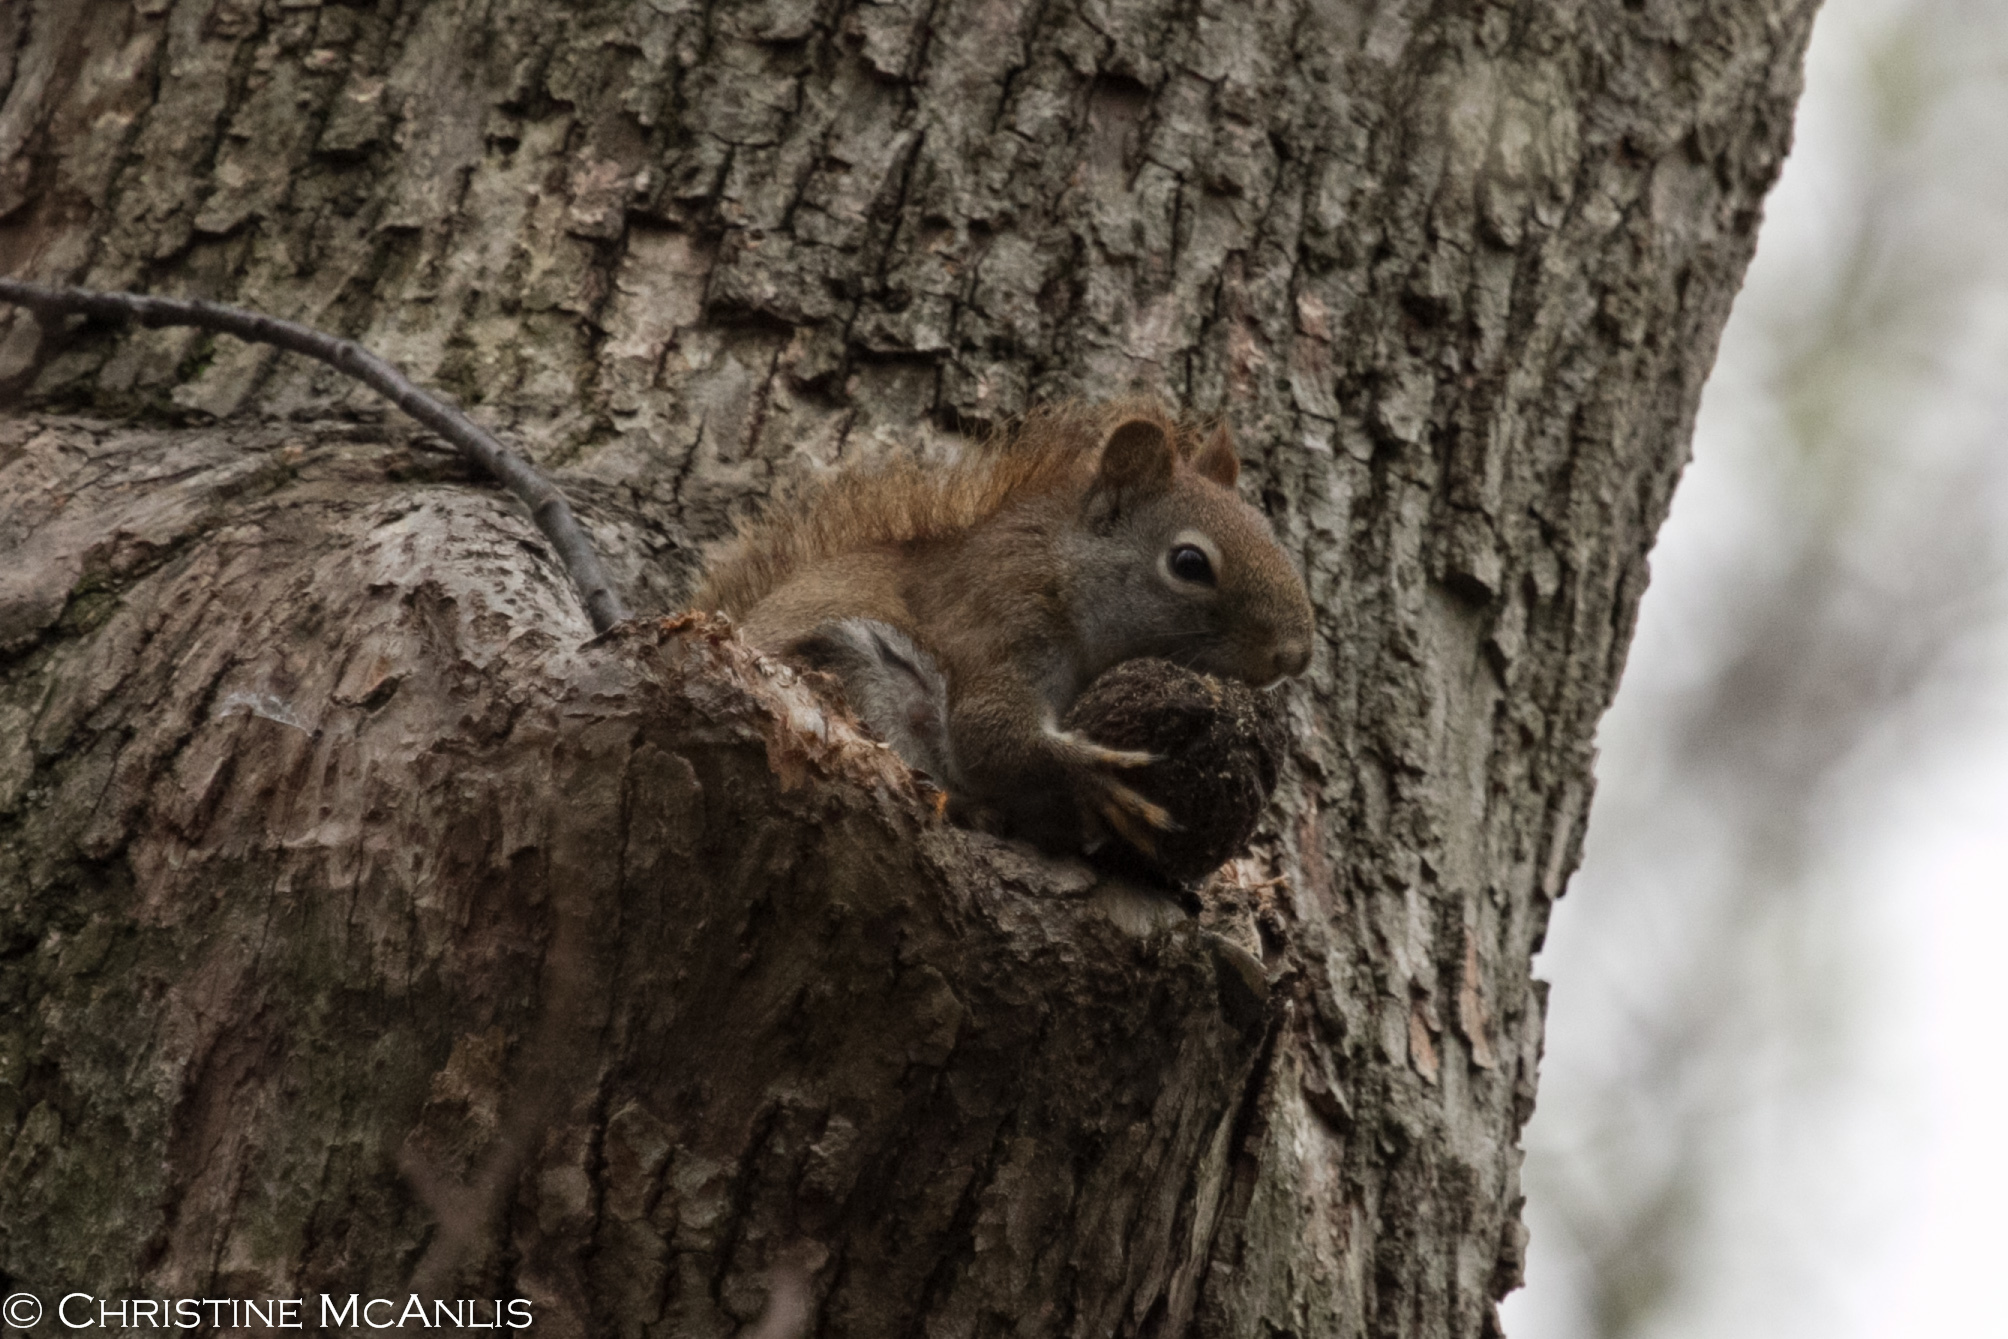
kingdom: Animalia
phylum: Chordata
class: Mammalia
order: Rodentia
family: Sciuridae
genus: Tamiasciurus
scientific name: Tamiasciurus hudsonicus
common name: Red squirrel
